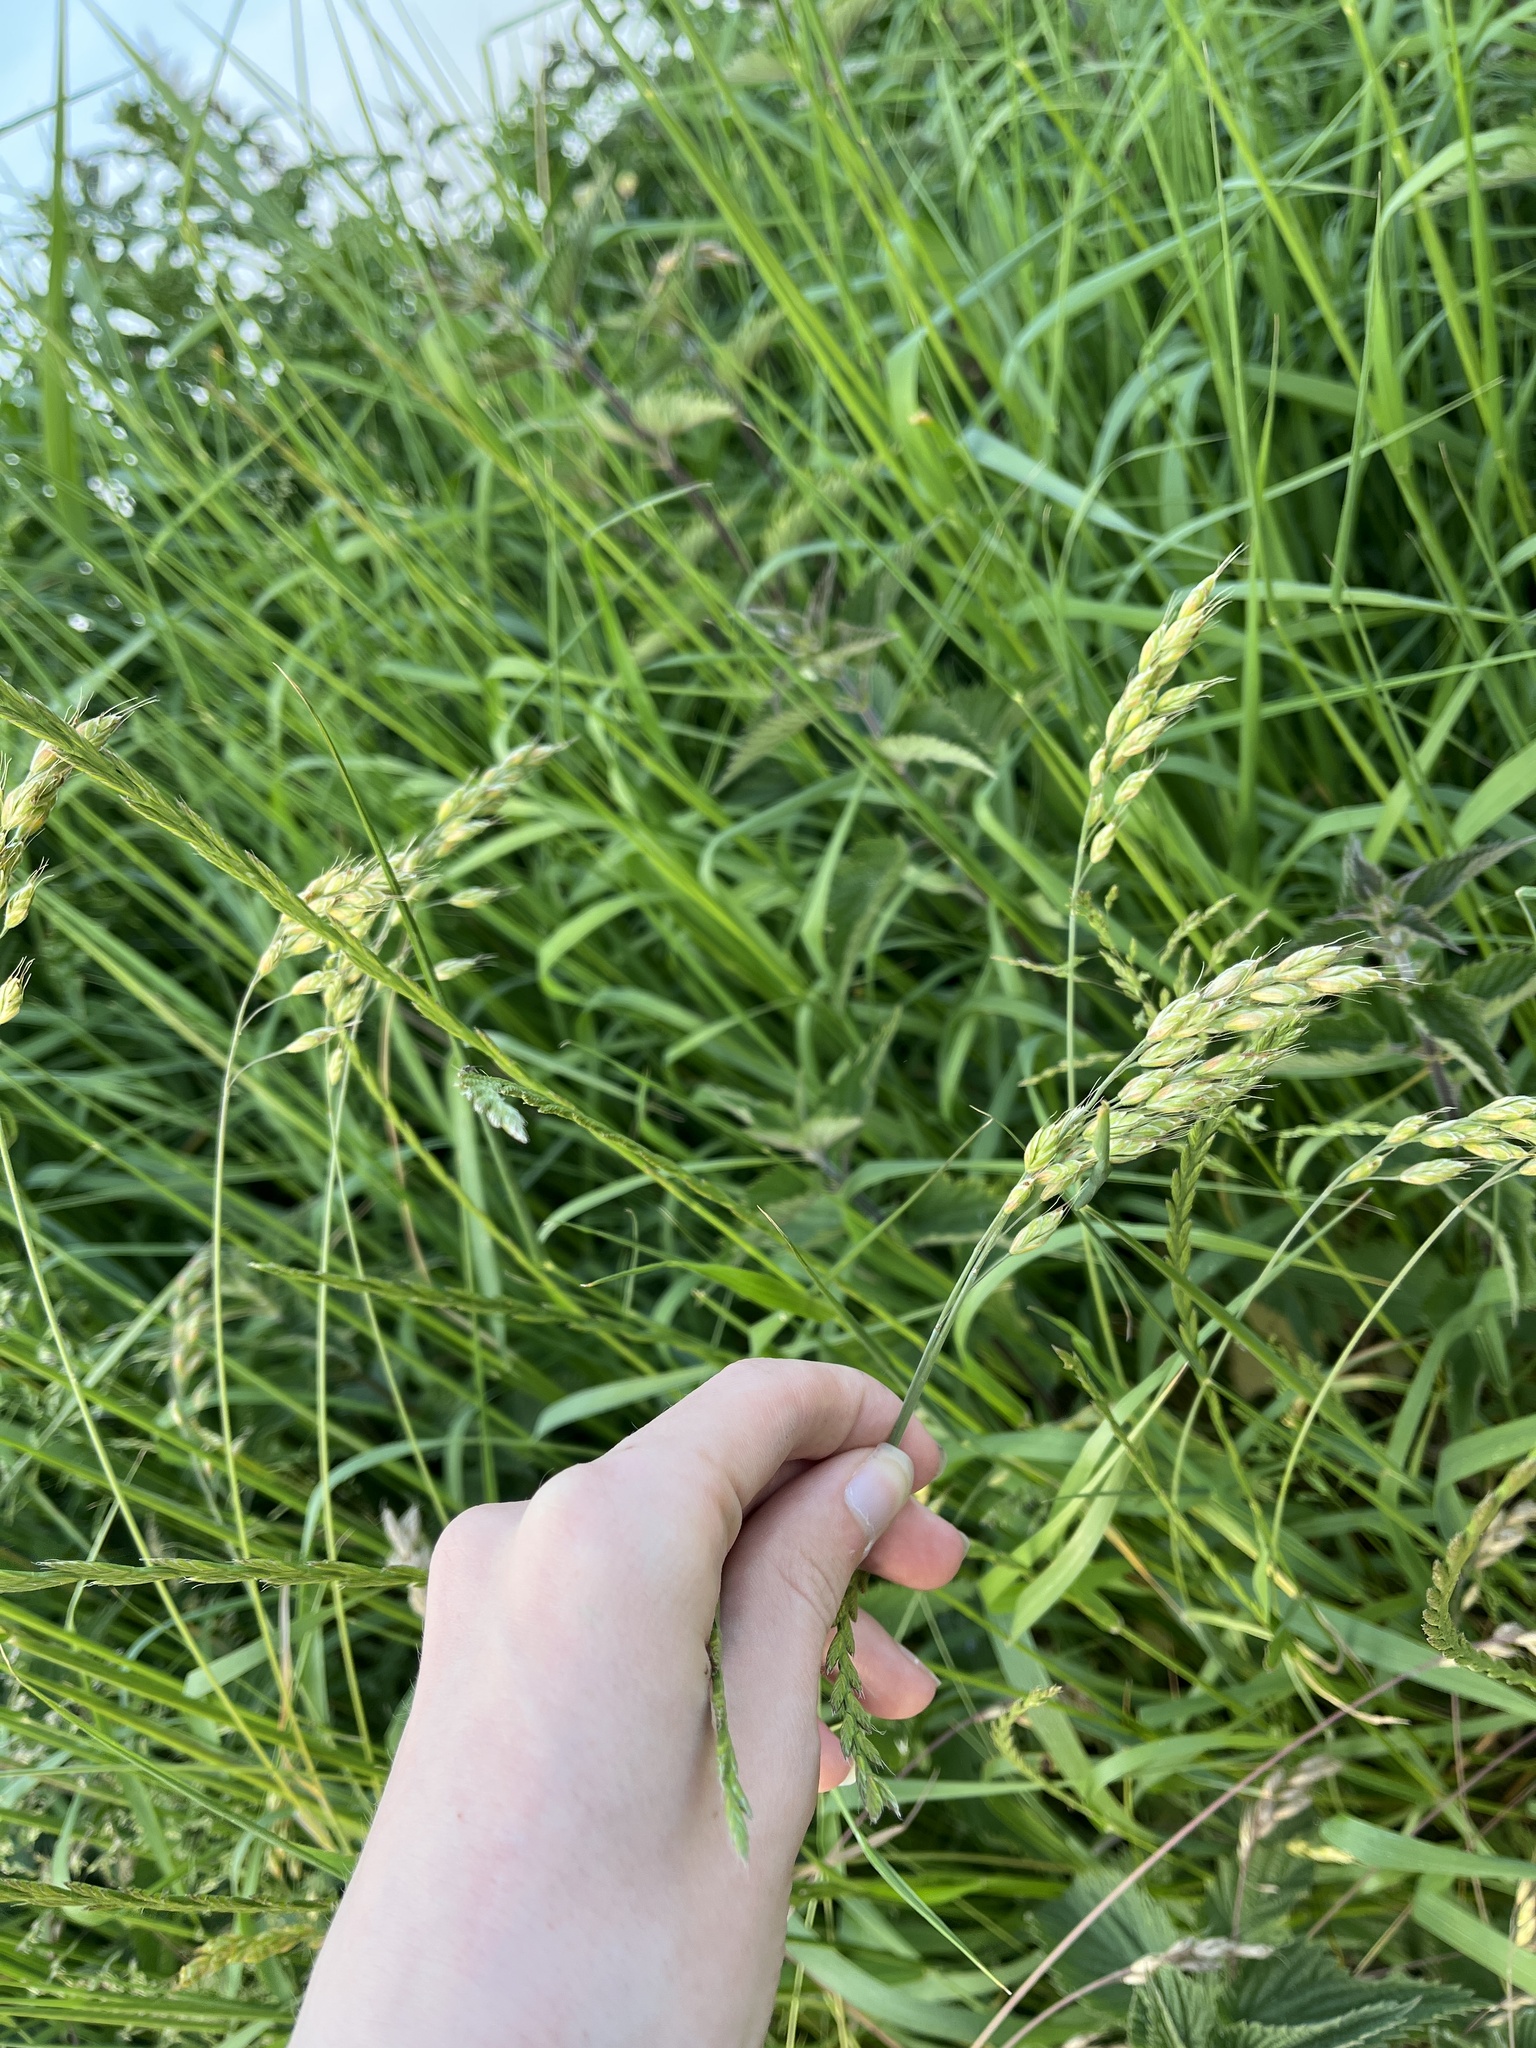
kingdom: Plantae
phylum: Tracheophyta
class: Liliopsida
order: Poales
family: Poaceae
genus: Bromus
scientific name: Bromus hordeaceus
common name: Soft brome
